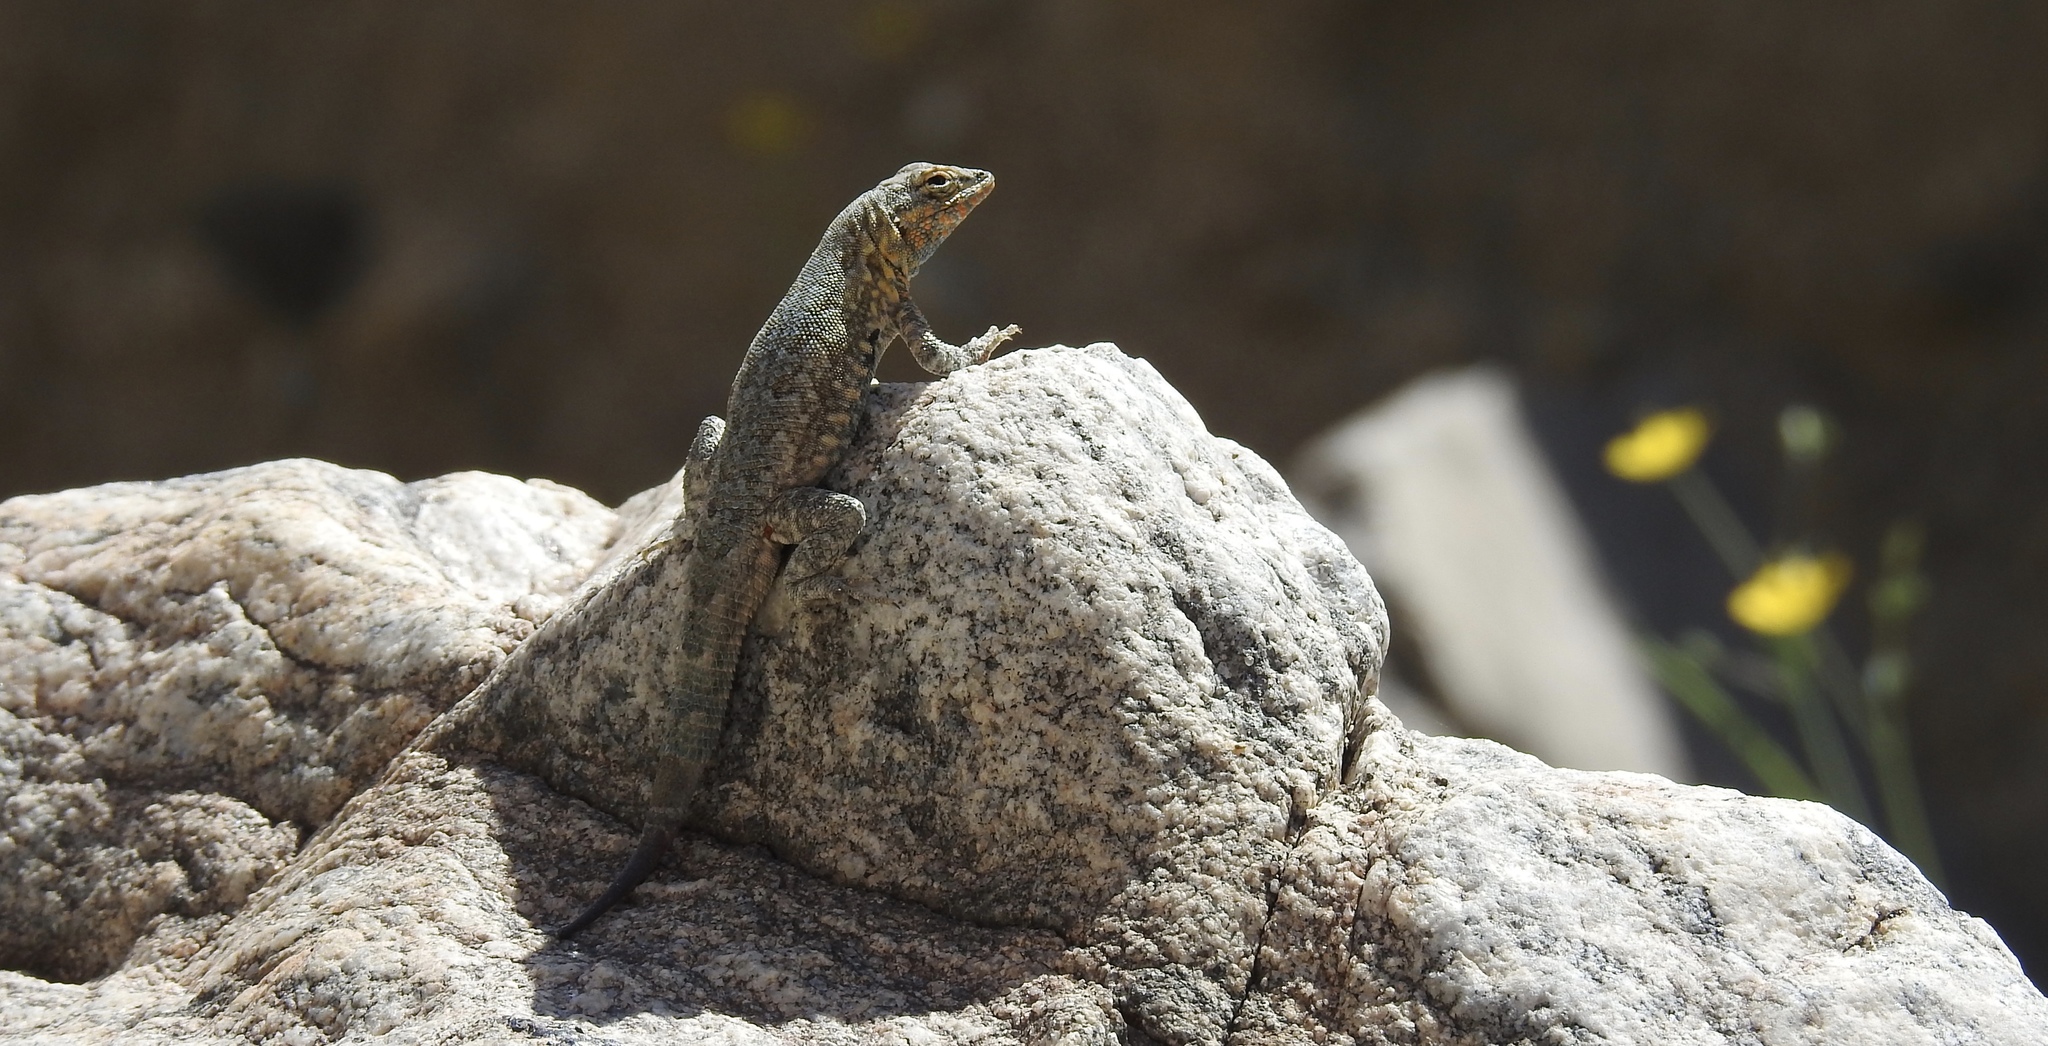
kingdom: Animalia
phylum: Chordata
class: Squamata
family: Phrynosomatidae
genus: Uta
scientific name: Uta stansburiana
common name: Side-blotched lizard
